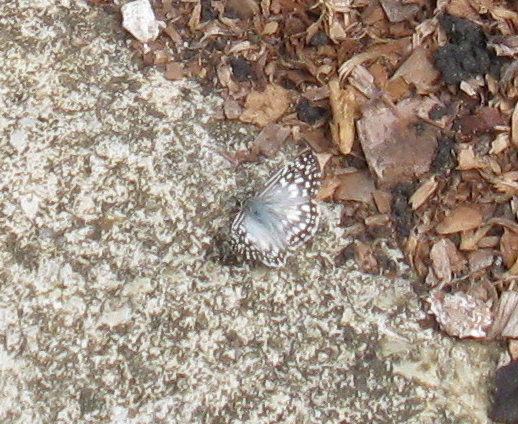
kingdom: Animalia
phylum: Arthropoda
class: Insecta
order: Lepidoptera
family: Hesperiidae
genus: Pyrgus
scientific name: Pyrgus oileus
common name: Tropical checkered-skipper
